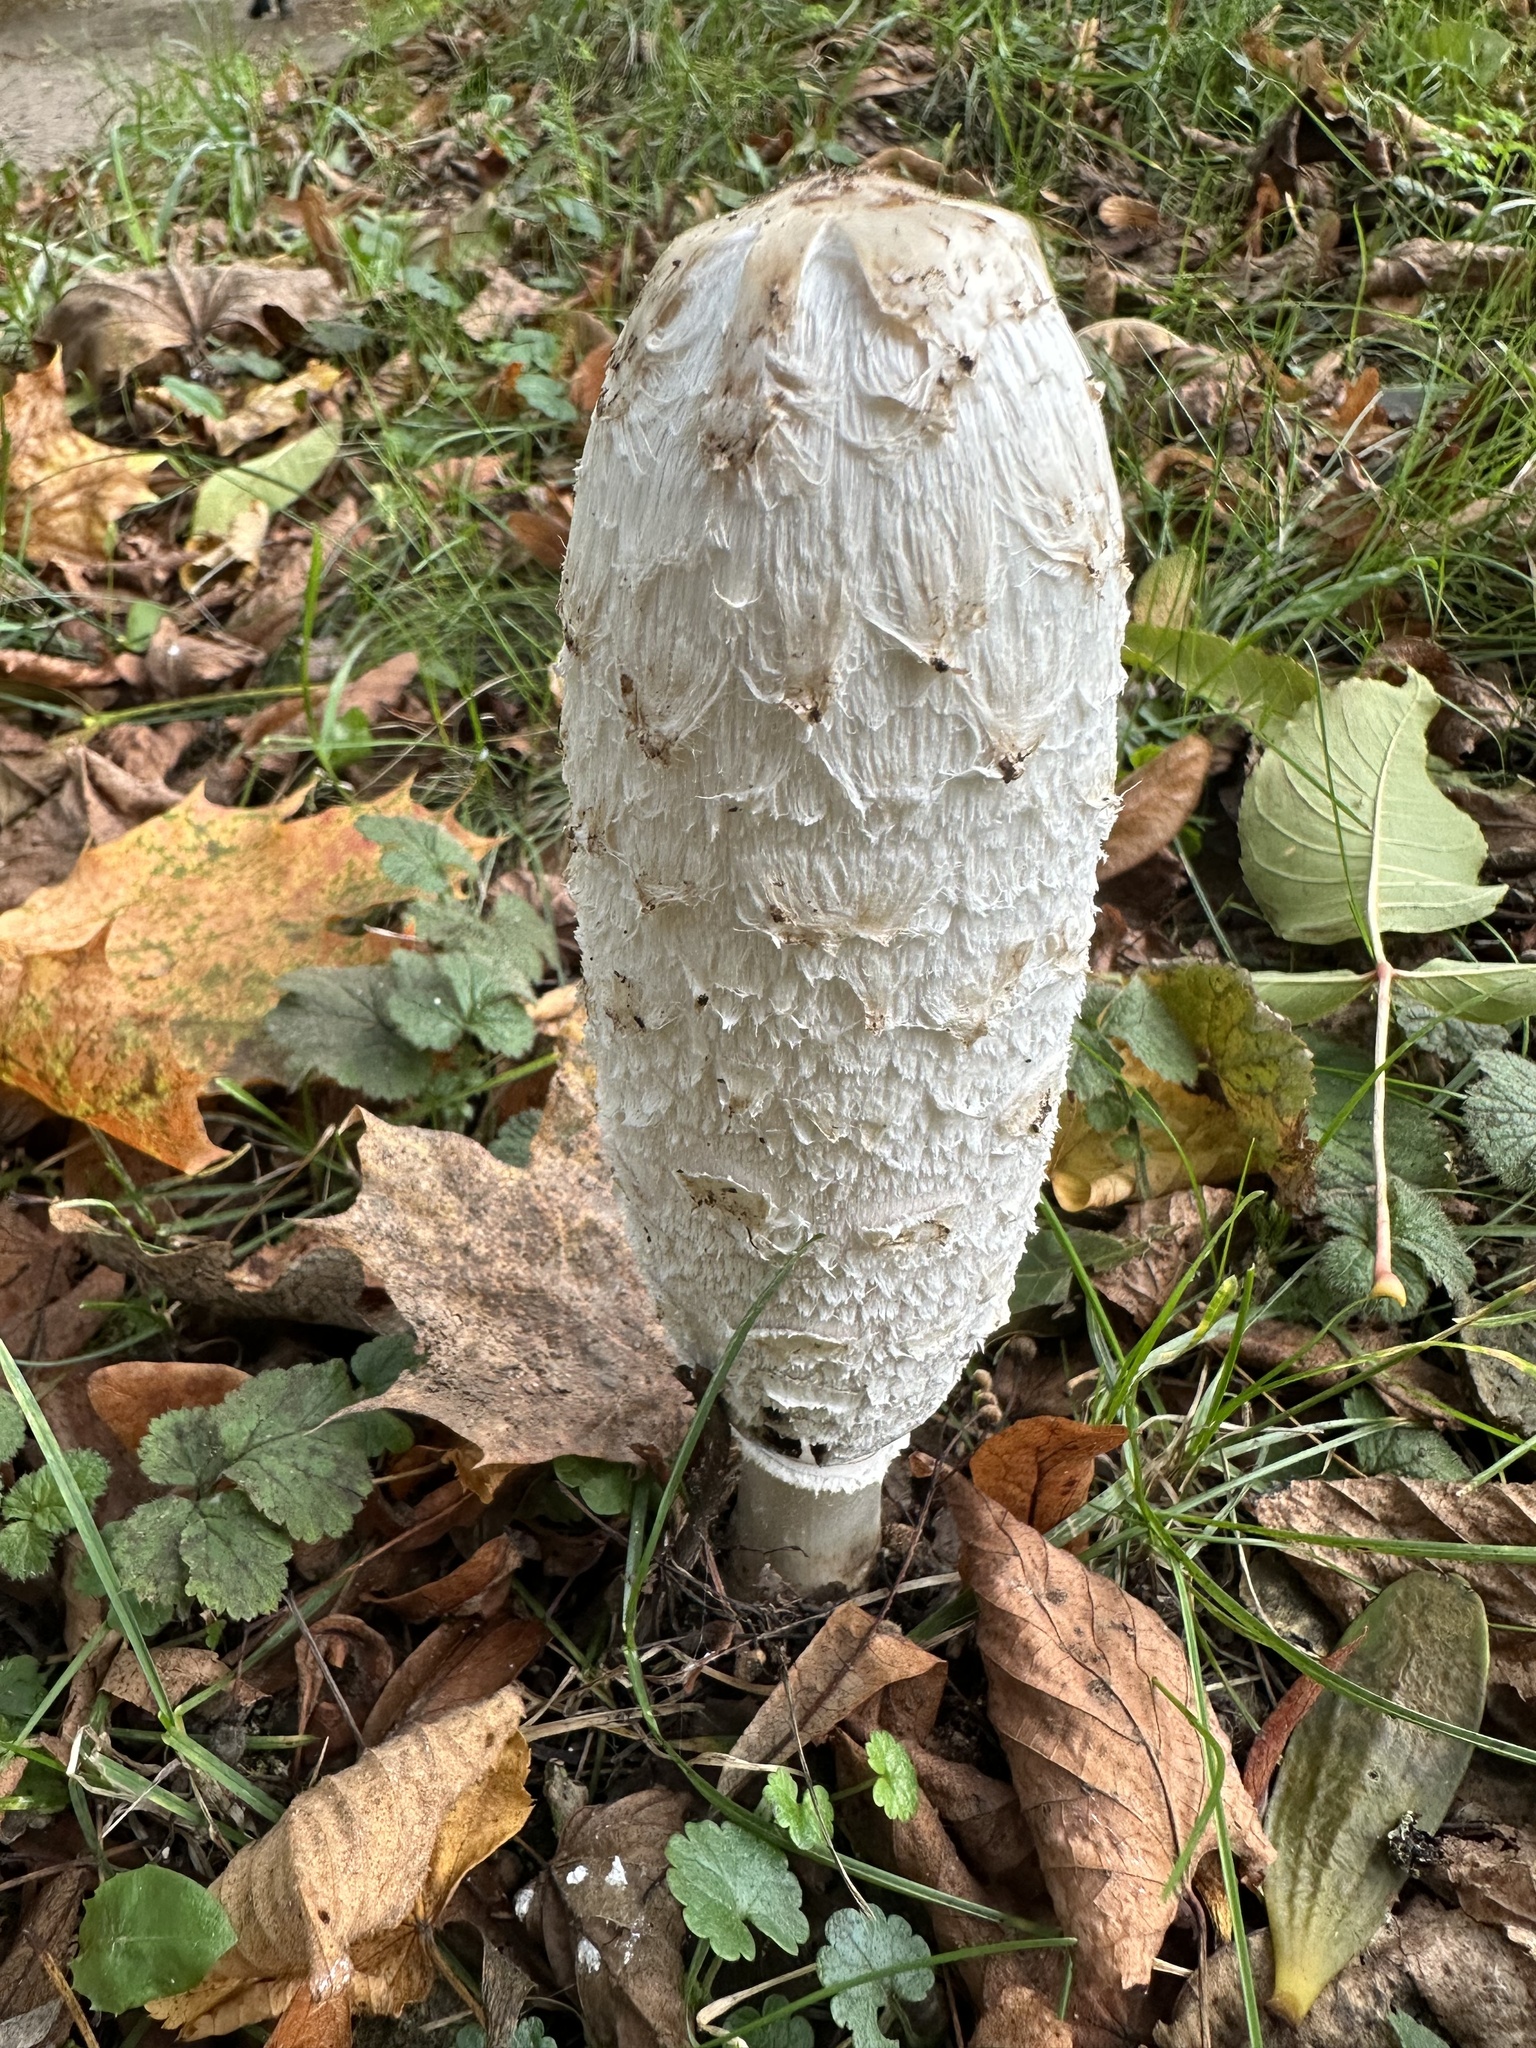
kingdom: Fungi
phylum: Basidiomycota
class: Agaricomycetes
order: Agaricales
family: Agaricaceae
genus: Coprinus
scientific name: Coprinus comatus
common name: Lawyer's wig
